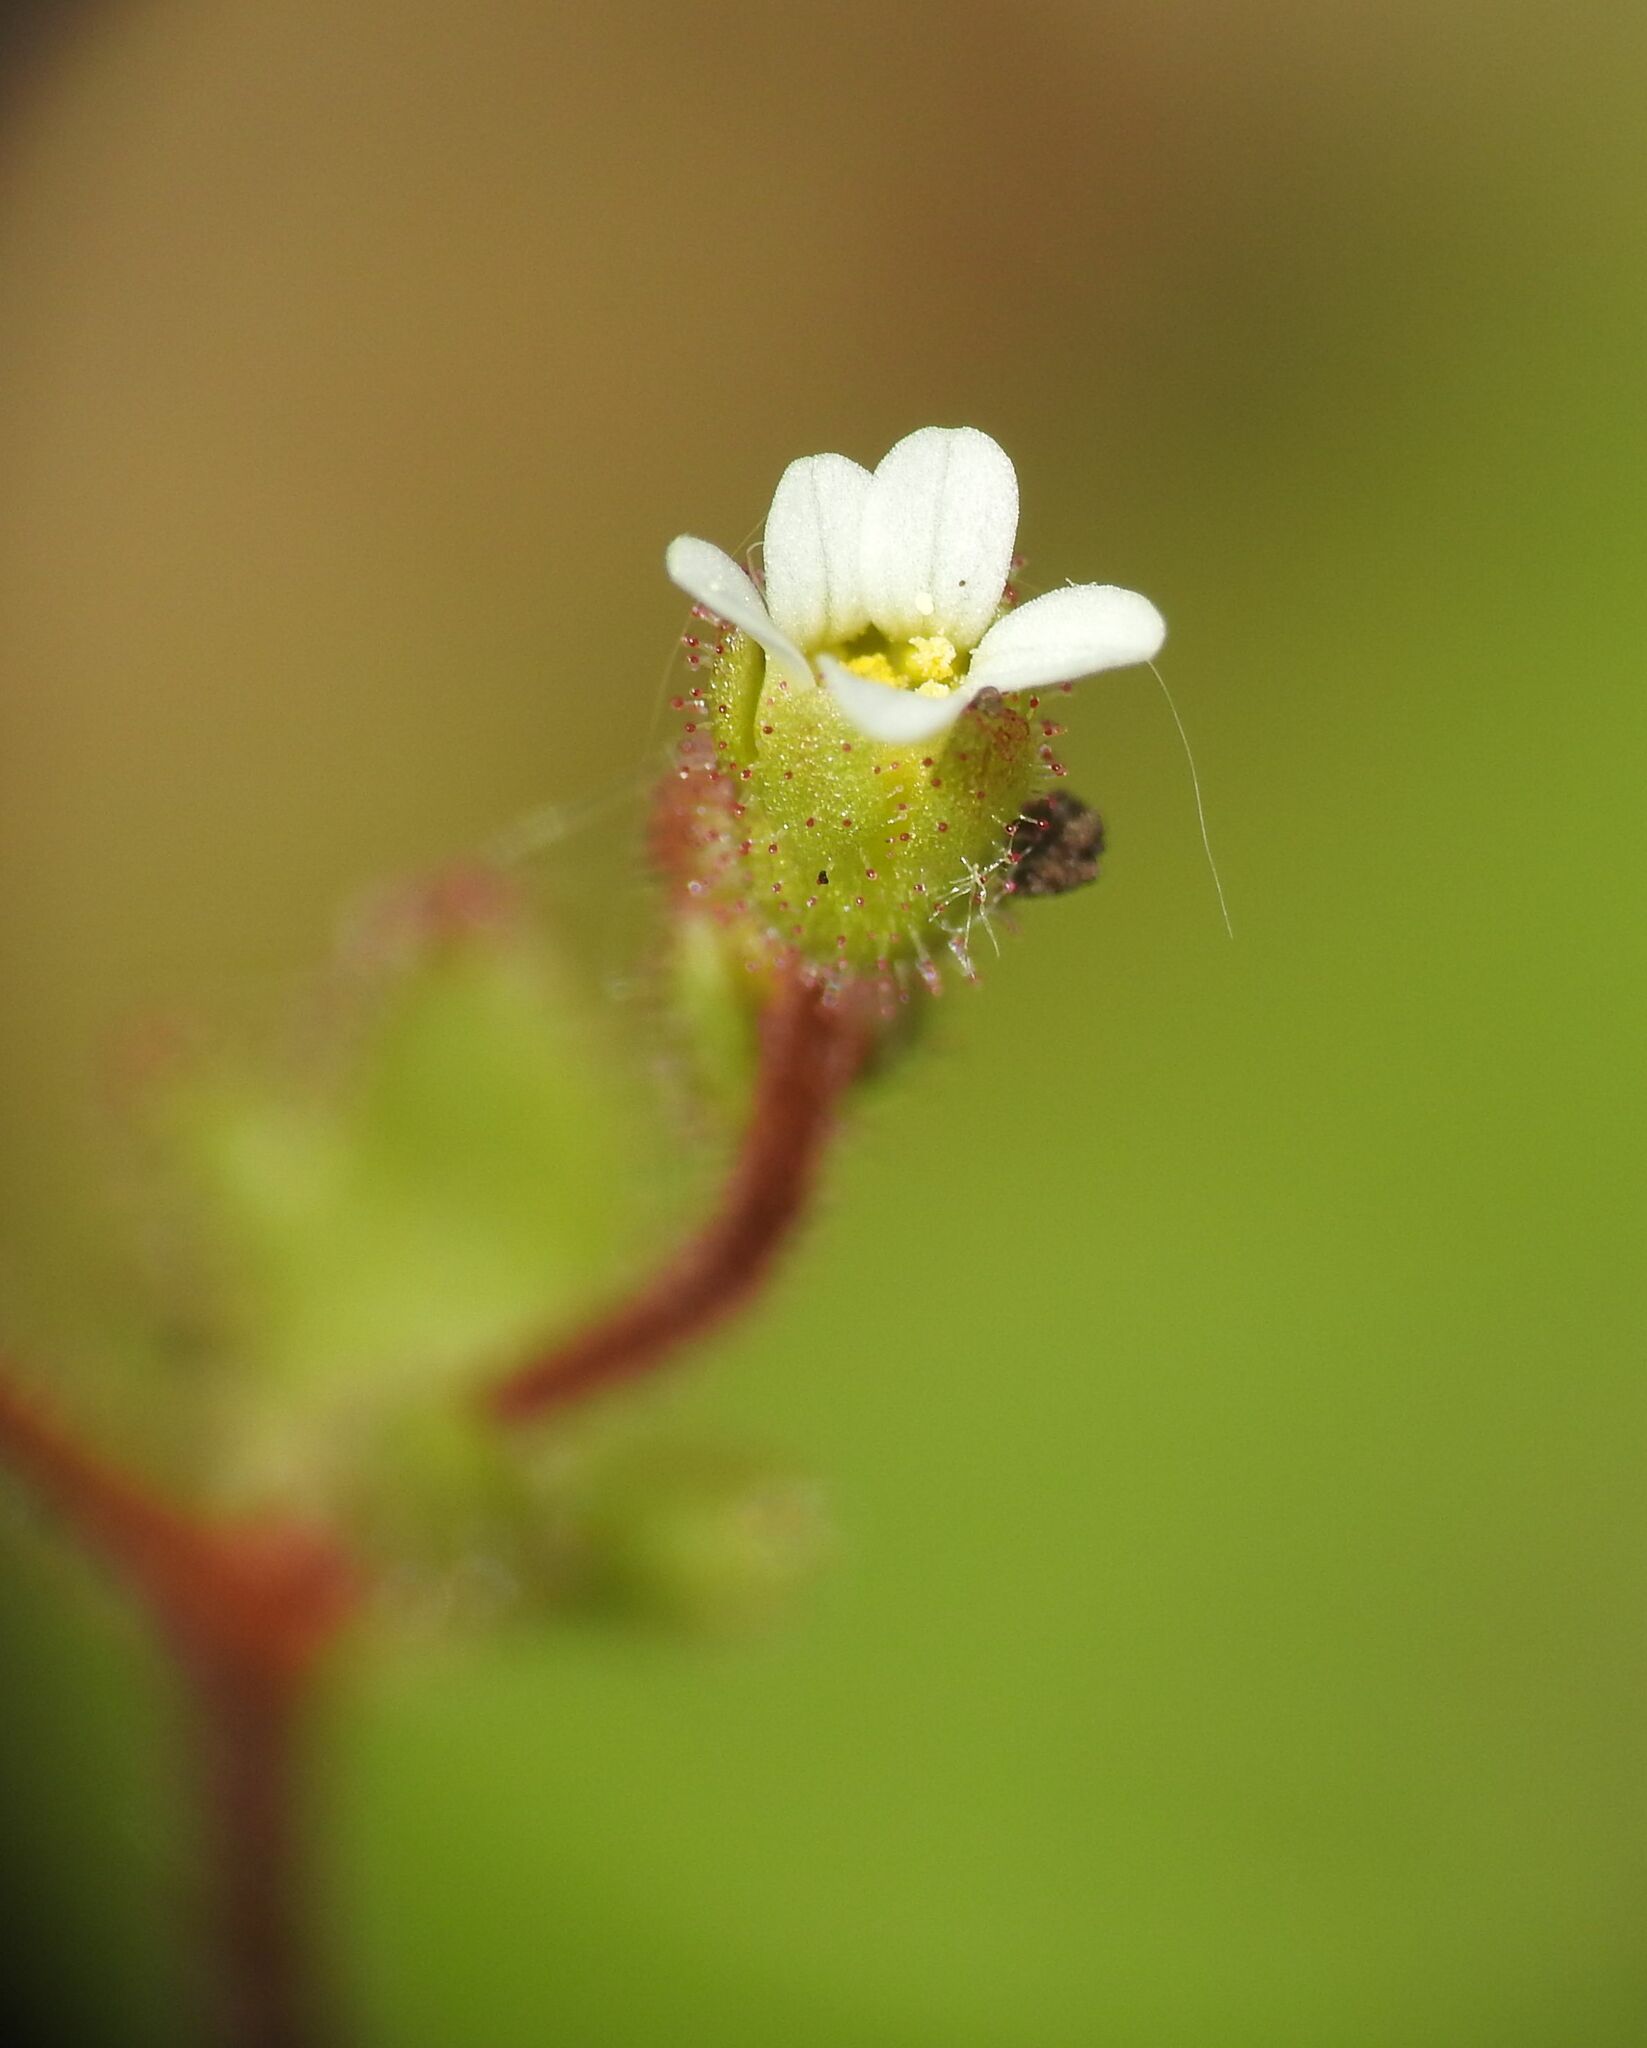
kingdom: Plantae
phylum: Tracheophyta
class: Magnoliopsida
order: Saxifragales
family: Saxifragaceae
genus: Saxifraga
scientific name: Saxifraga tridactylites
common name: Rue-leaved saxifrage
